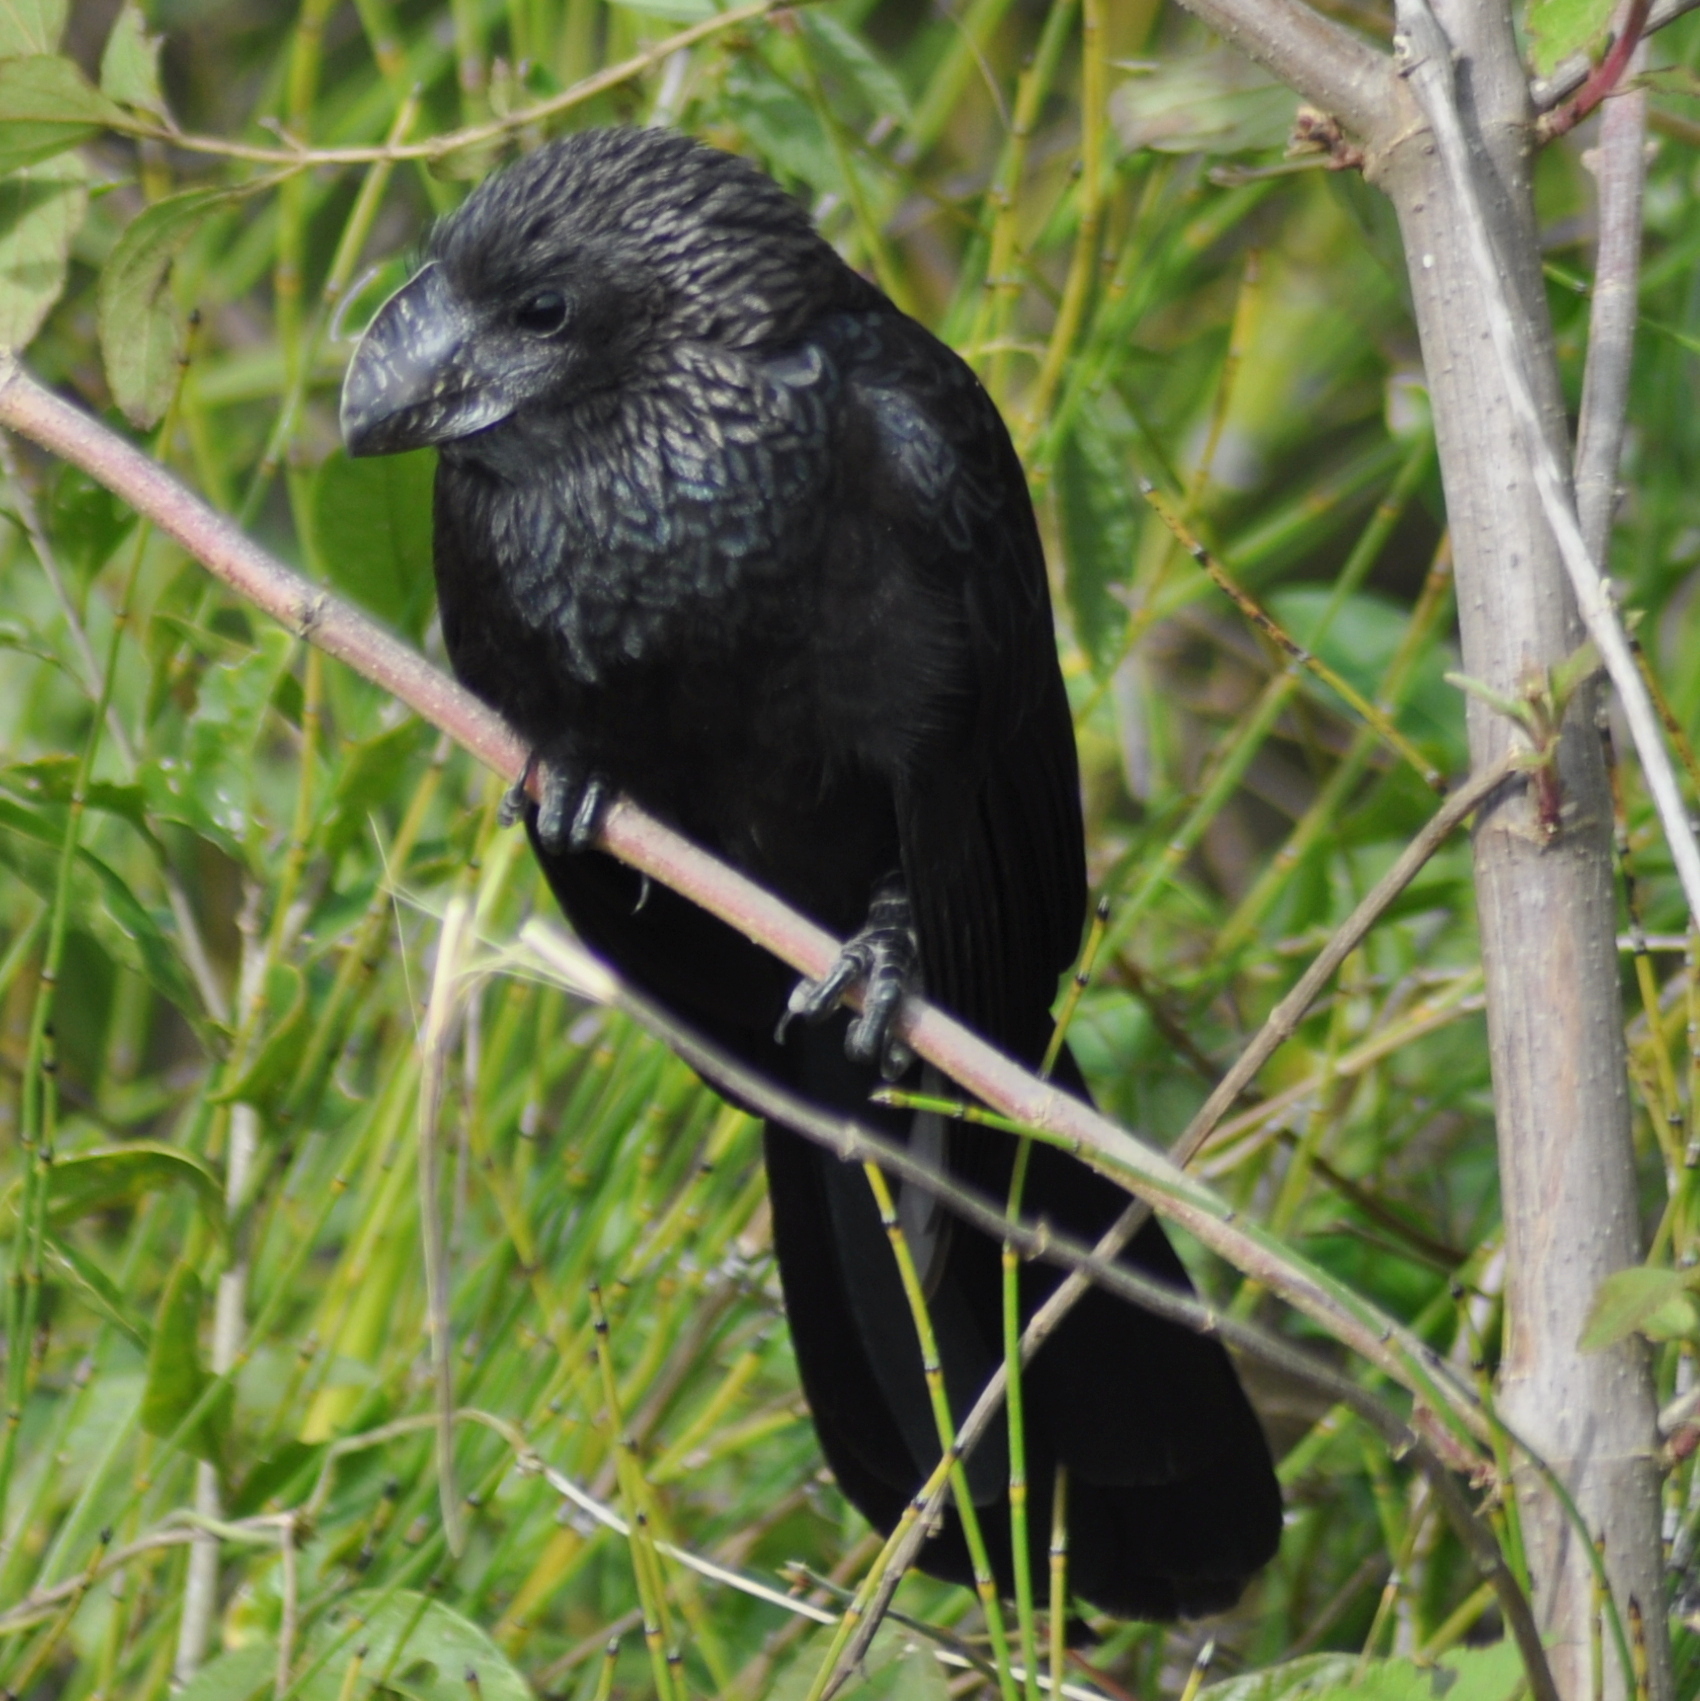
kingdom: Animalia
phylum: Chordata
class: Aves
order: Cuculiformes
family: Cuculidae
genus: Crotophaga
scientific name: Crotophaga ani
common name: Smooth-billed ani
